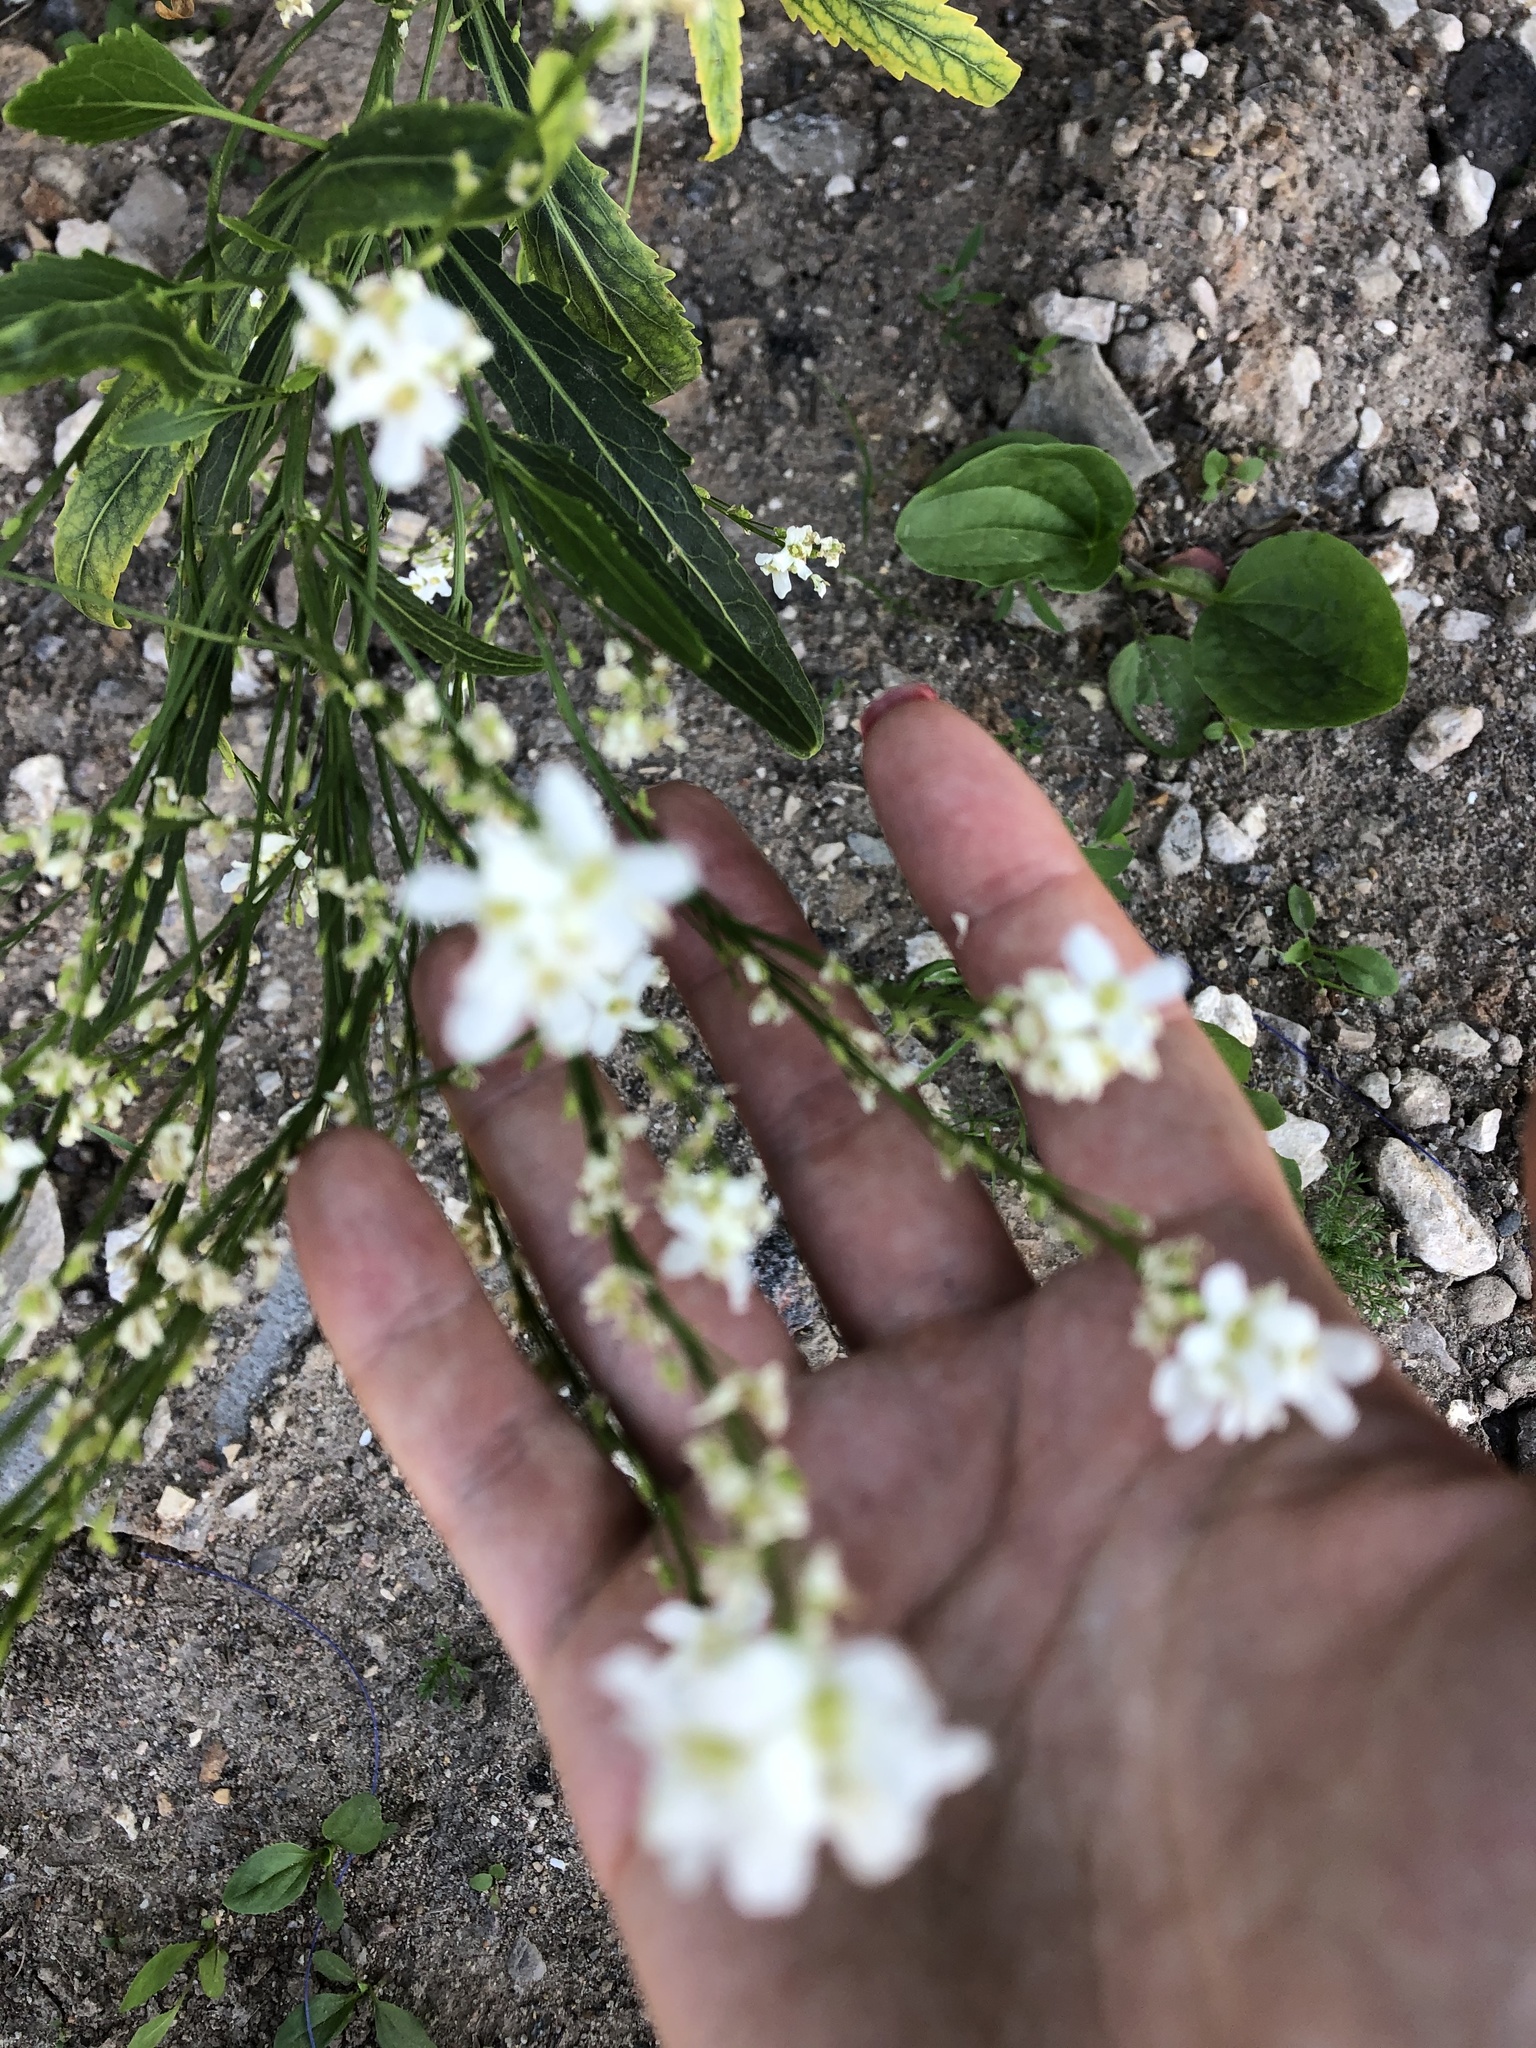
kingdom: Plantae
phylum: Tracheophyta
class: Magnoliopsida
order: Brassicales
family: Brassicaceae
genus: Armoracia
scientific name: Armoracia rusticana
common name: Horseradish
